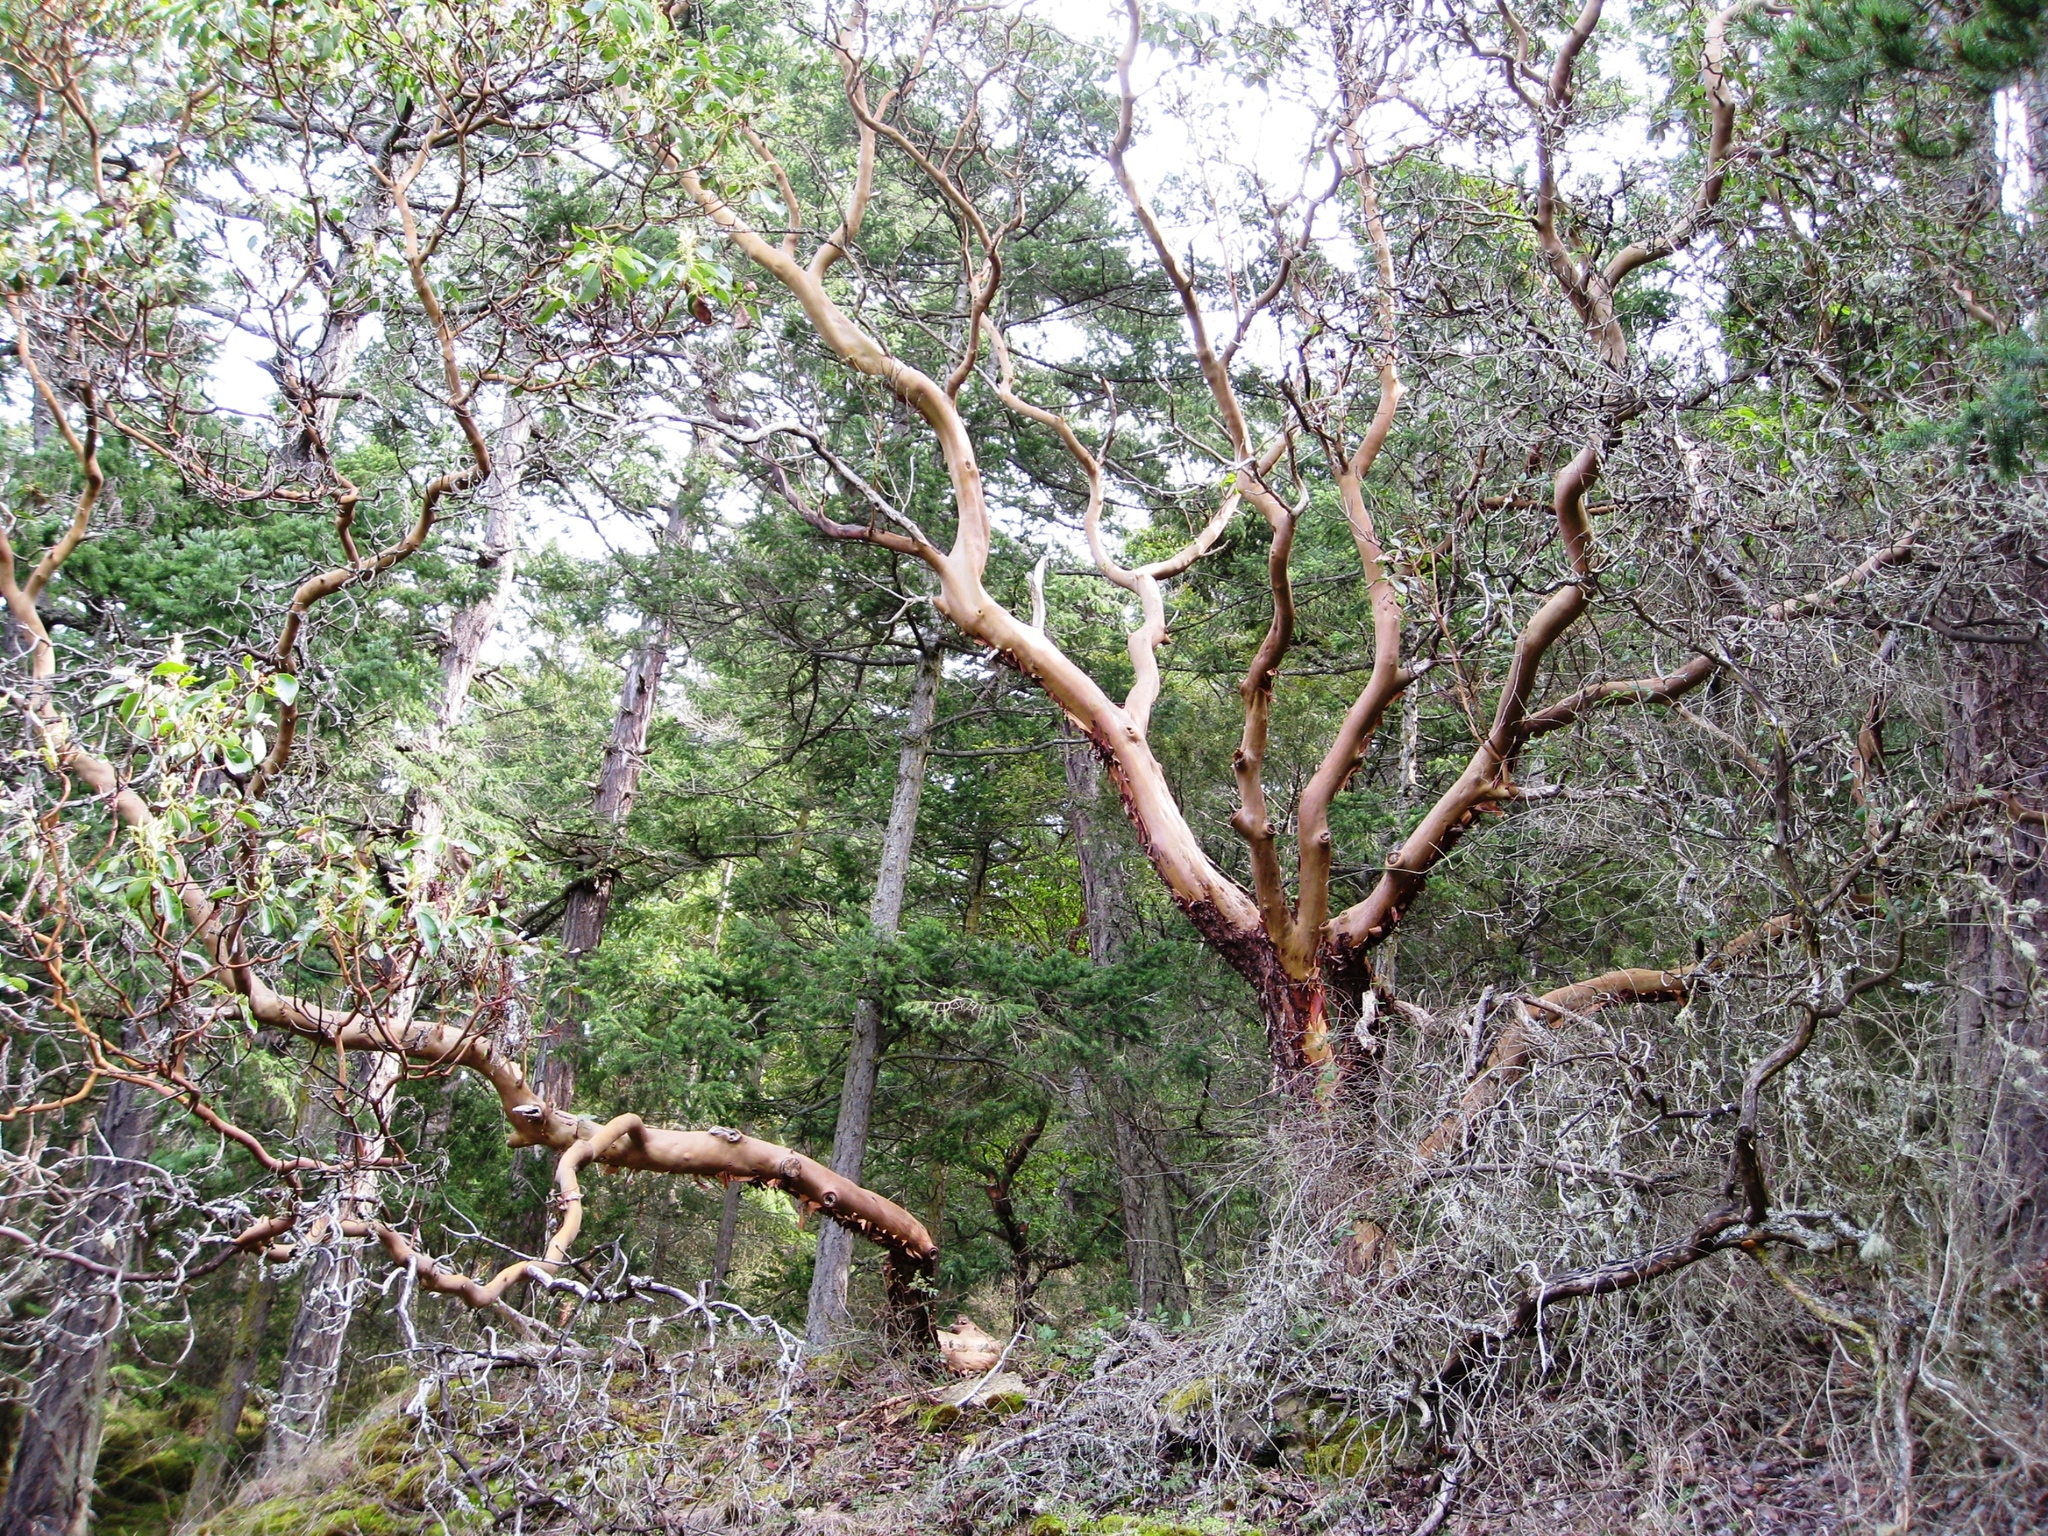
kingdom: Plantae
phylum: Tracheophyta
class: Magnoliopsida
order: Ericales
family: Ericaceae
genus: Arbutus
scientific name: Arbutus menziesii
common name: Pacific madrone
